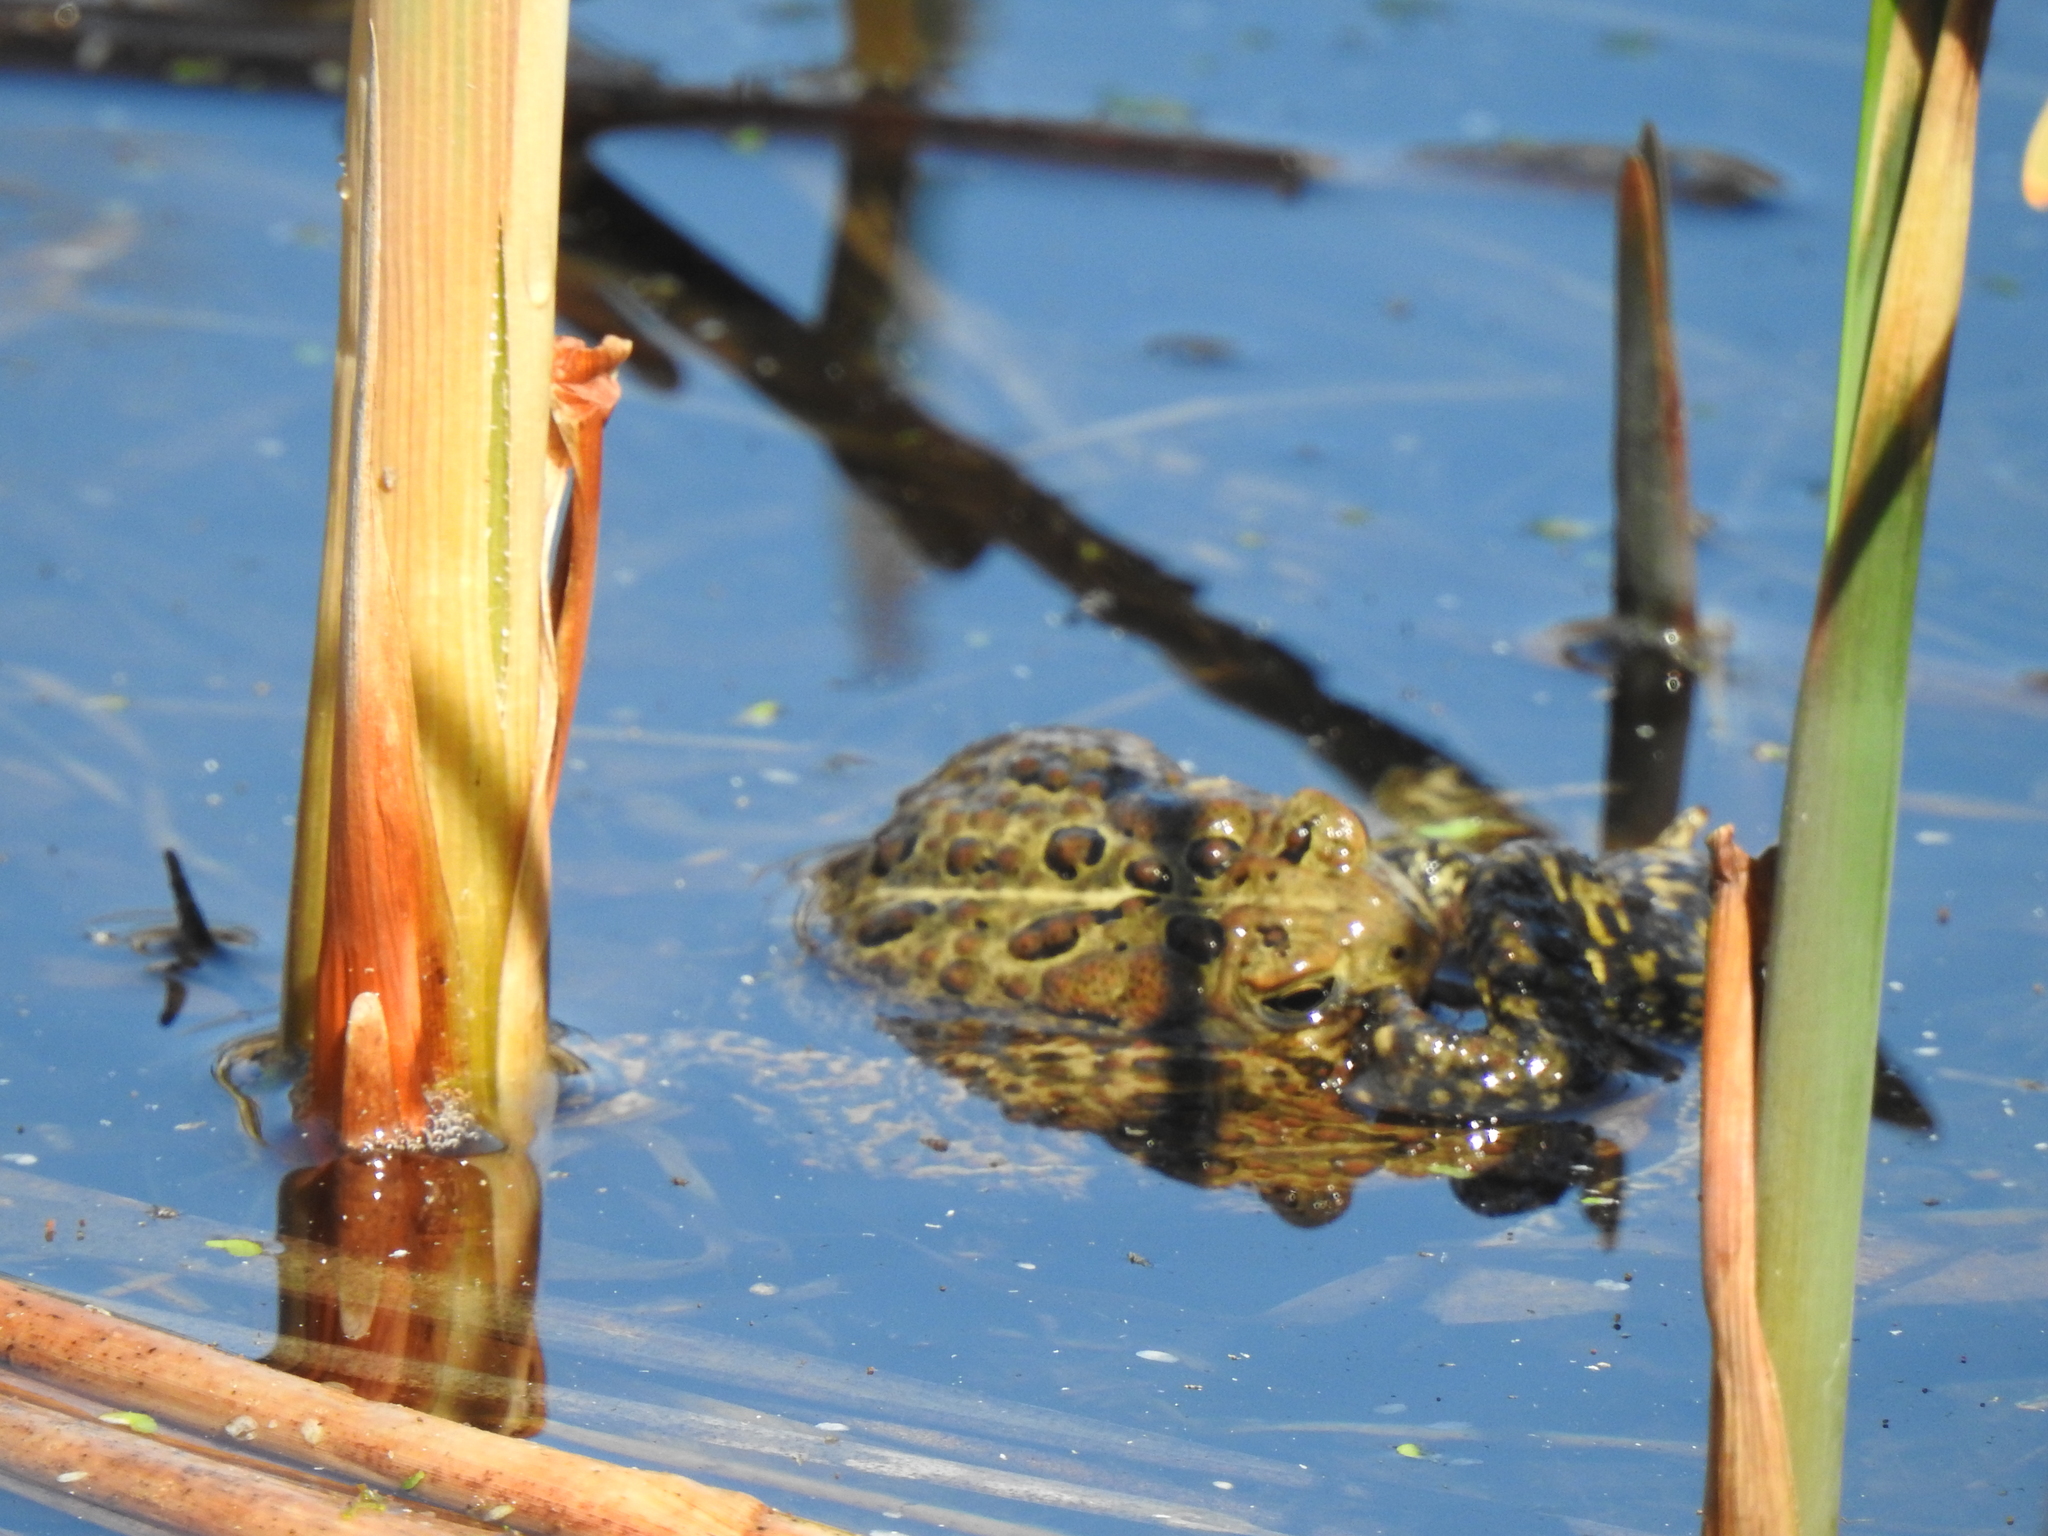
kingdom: Animalia
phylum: Chordata
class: Amphibia
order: Anura
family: Bufonidae
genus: Anaxyrus
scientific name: Anaxyrus americanus
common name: American toad
